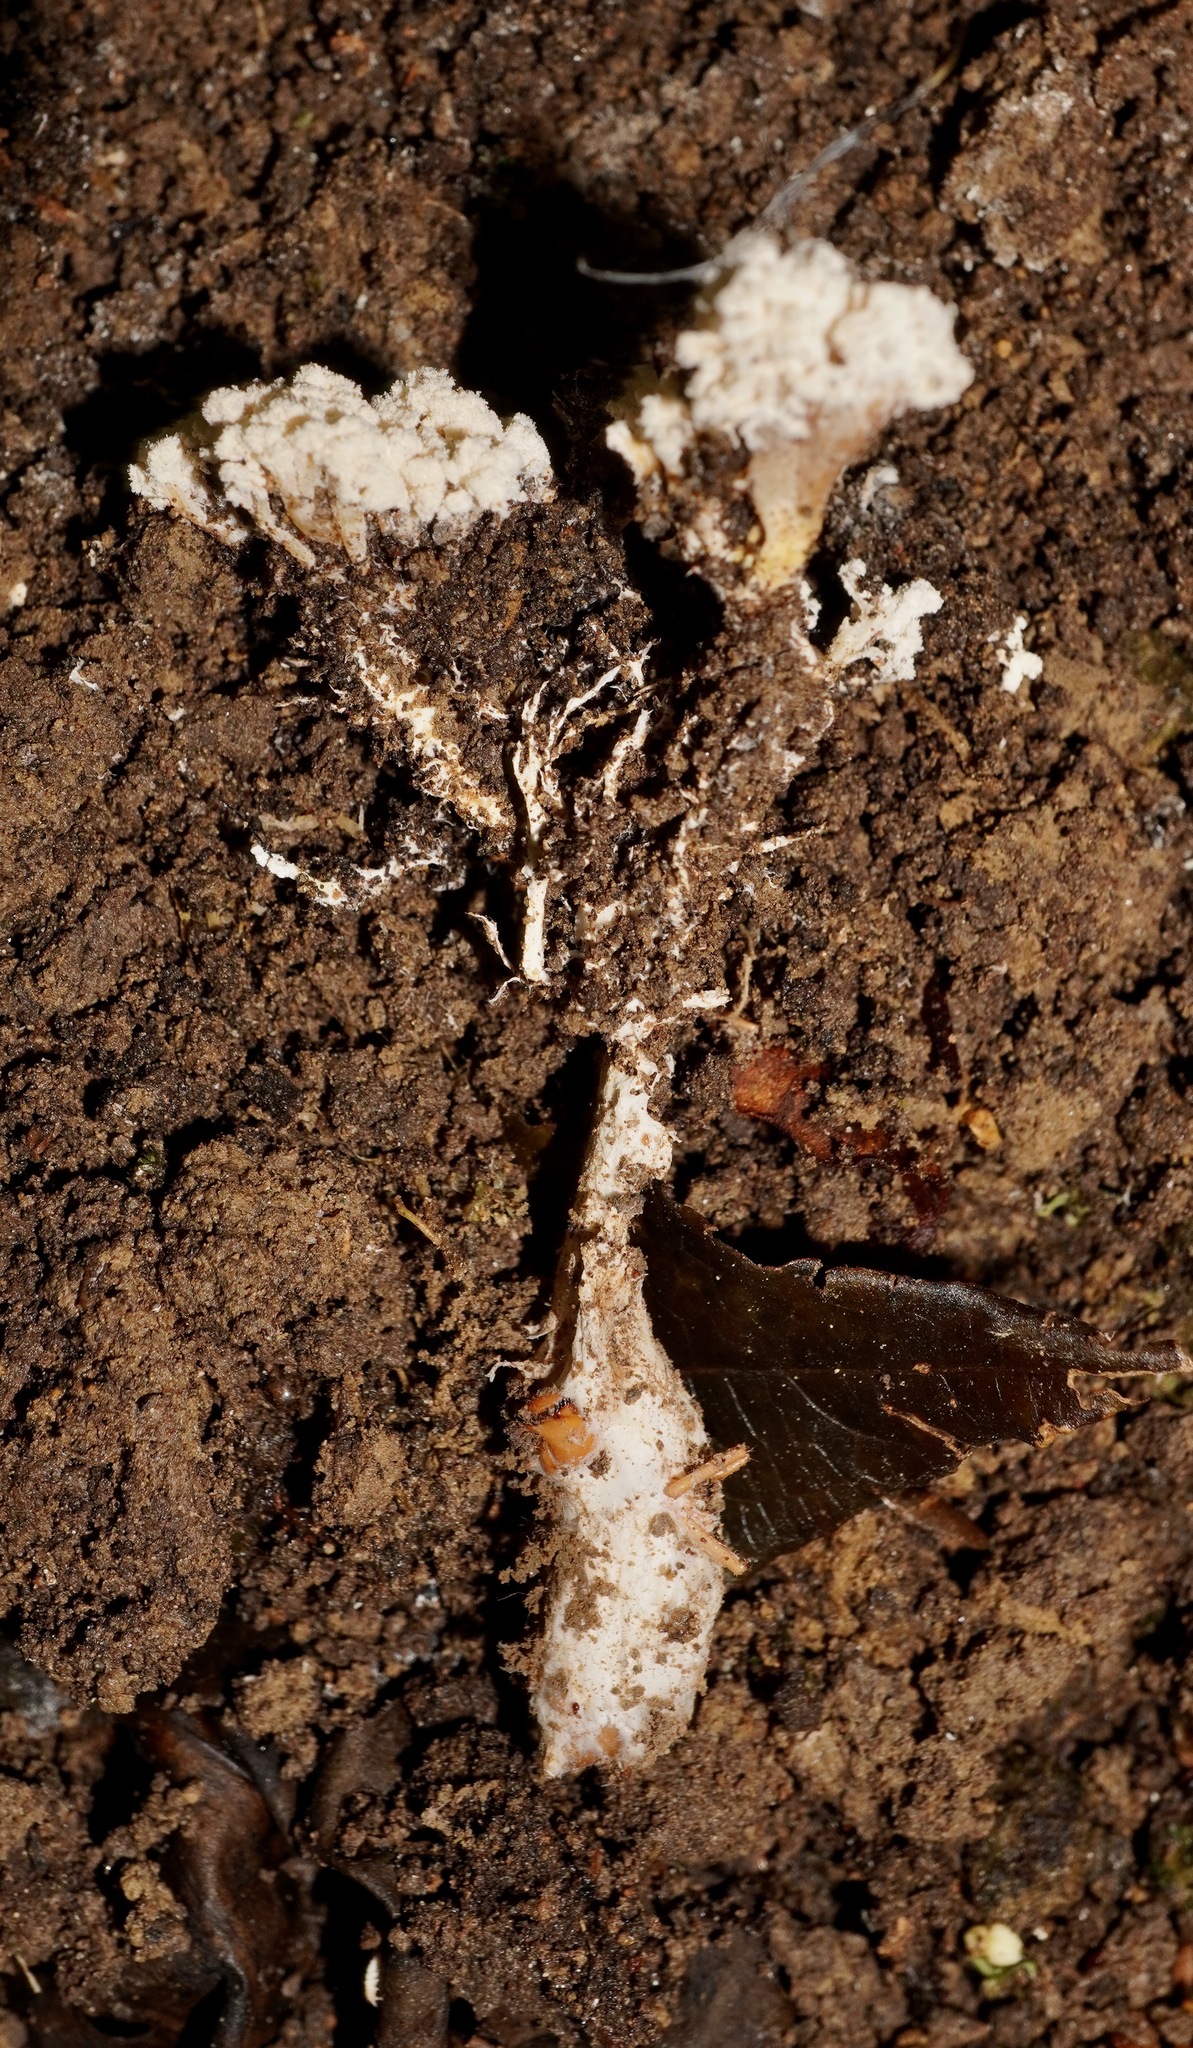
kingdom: Fungi
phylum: Ascomycota
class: Sordariomycetes
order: Hypocreales
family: Cordycipitaceae
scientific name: Cordycipitaceae
